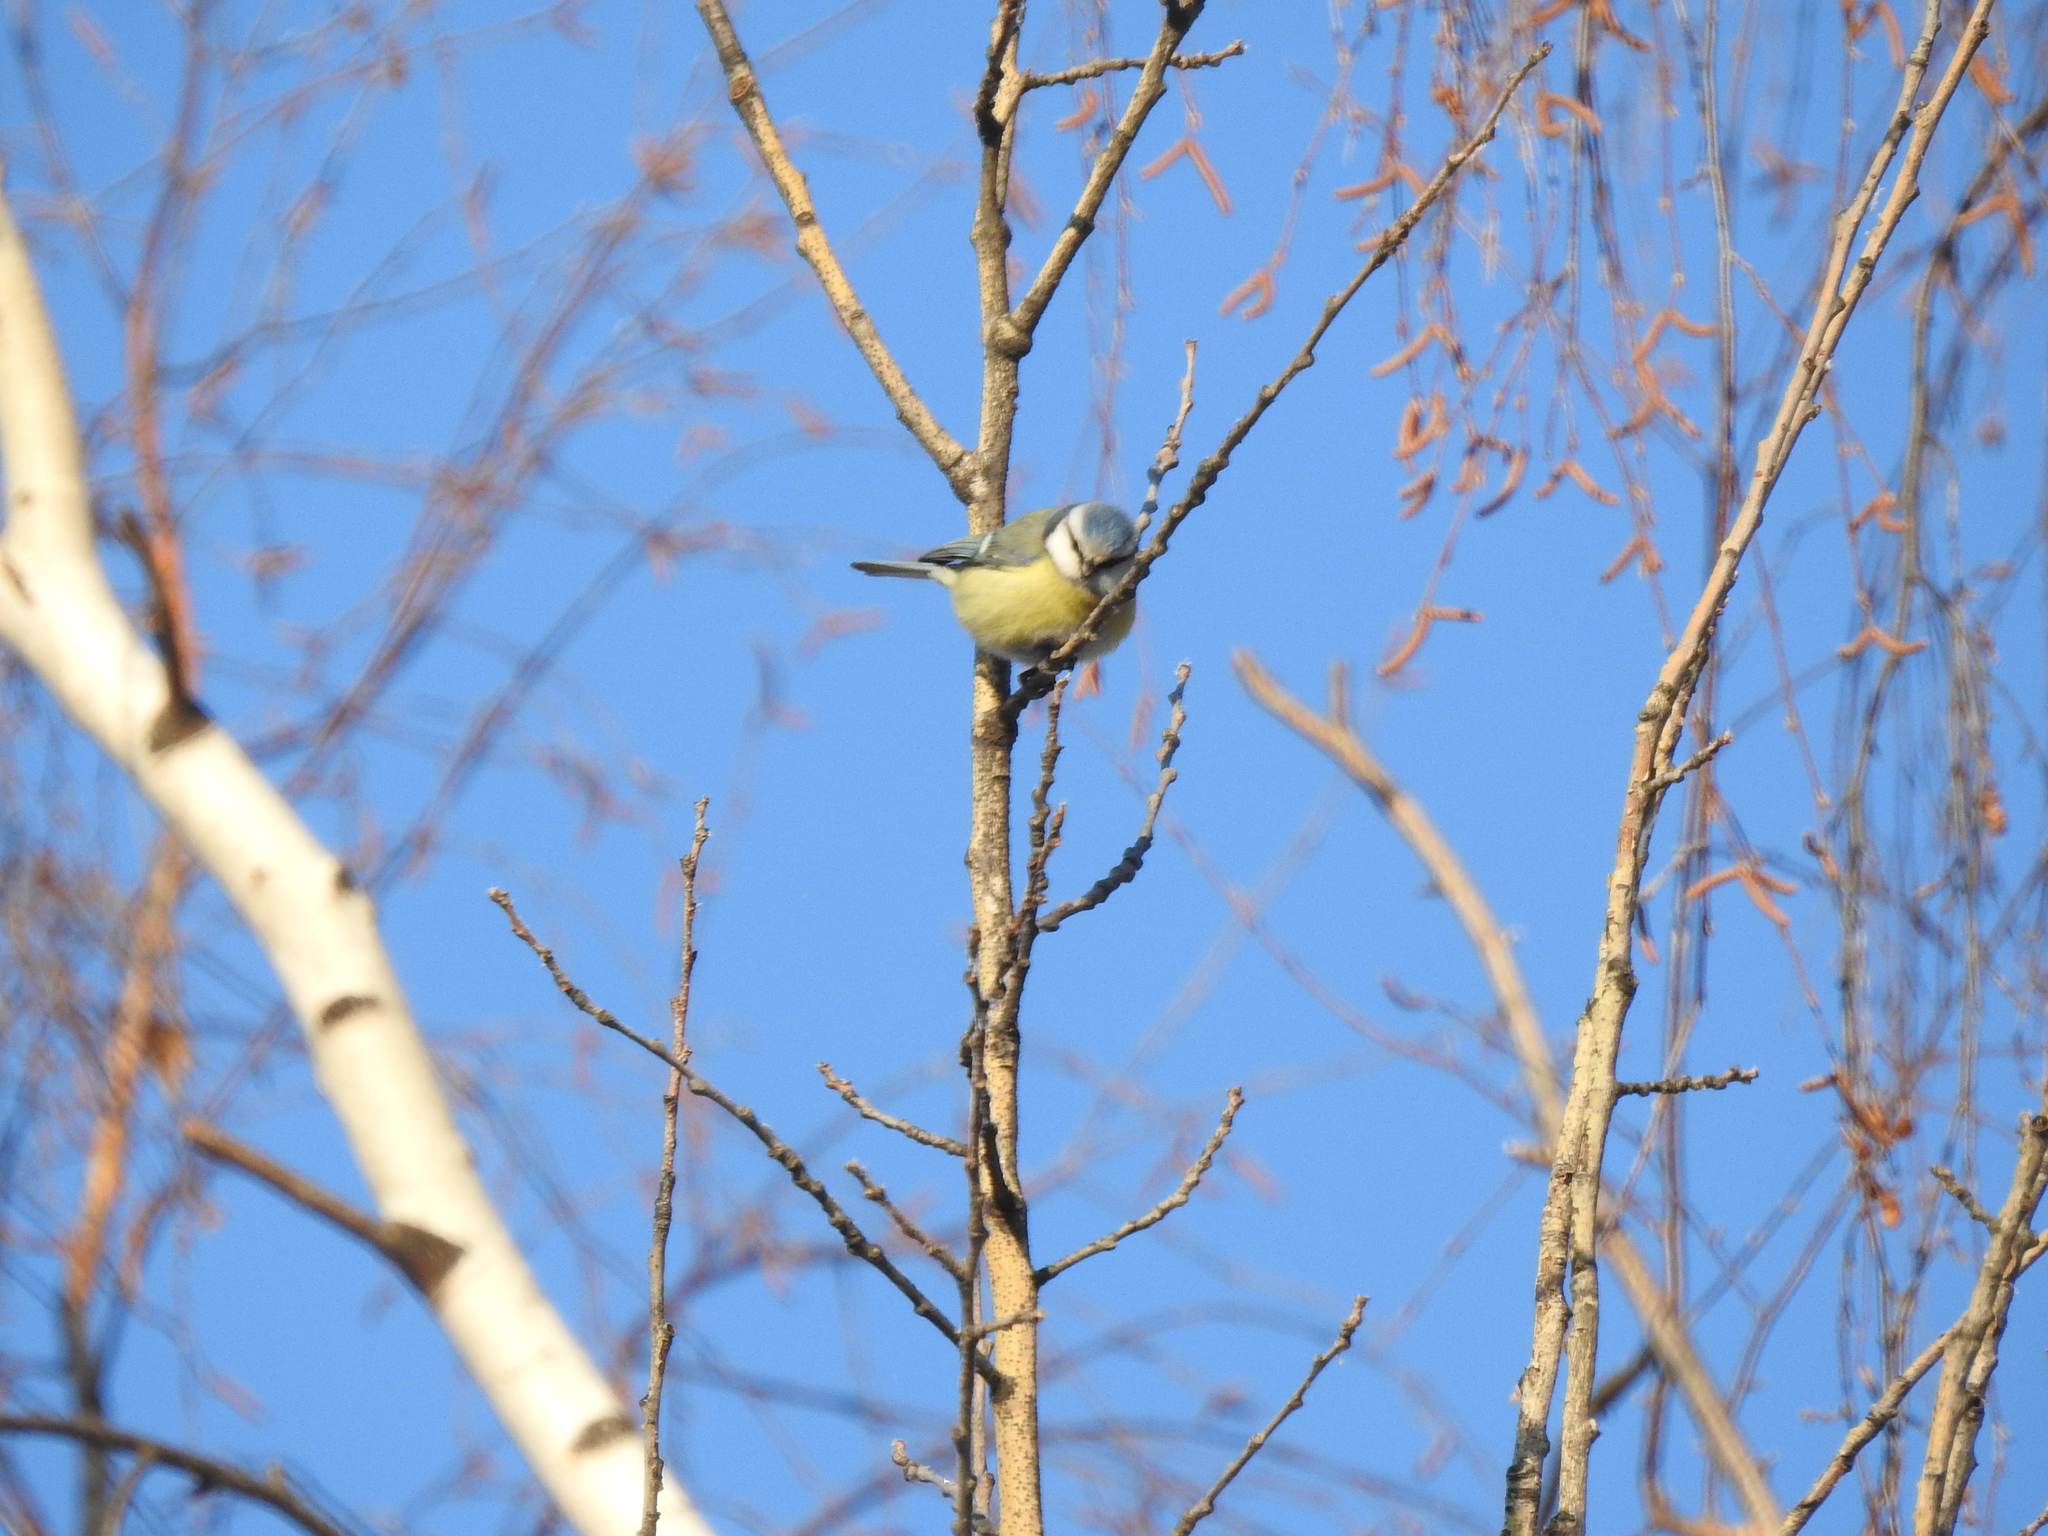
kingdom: Animalia
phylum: Chordata
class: Aves
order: Passeriformes
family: Paridae
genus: Cyanistes
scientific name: Cyanistes caeruleus
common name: Eurasian blue tit
